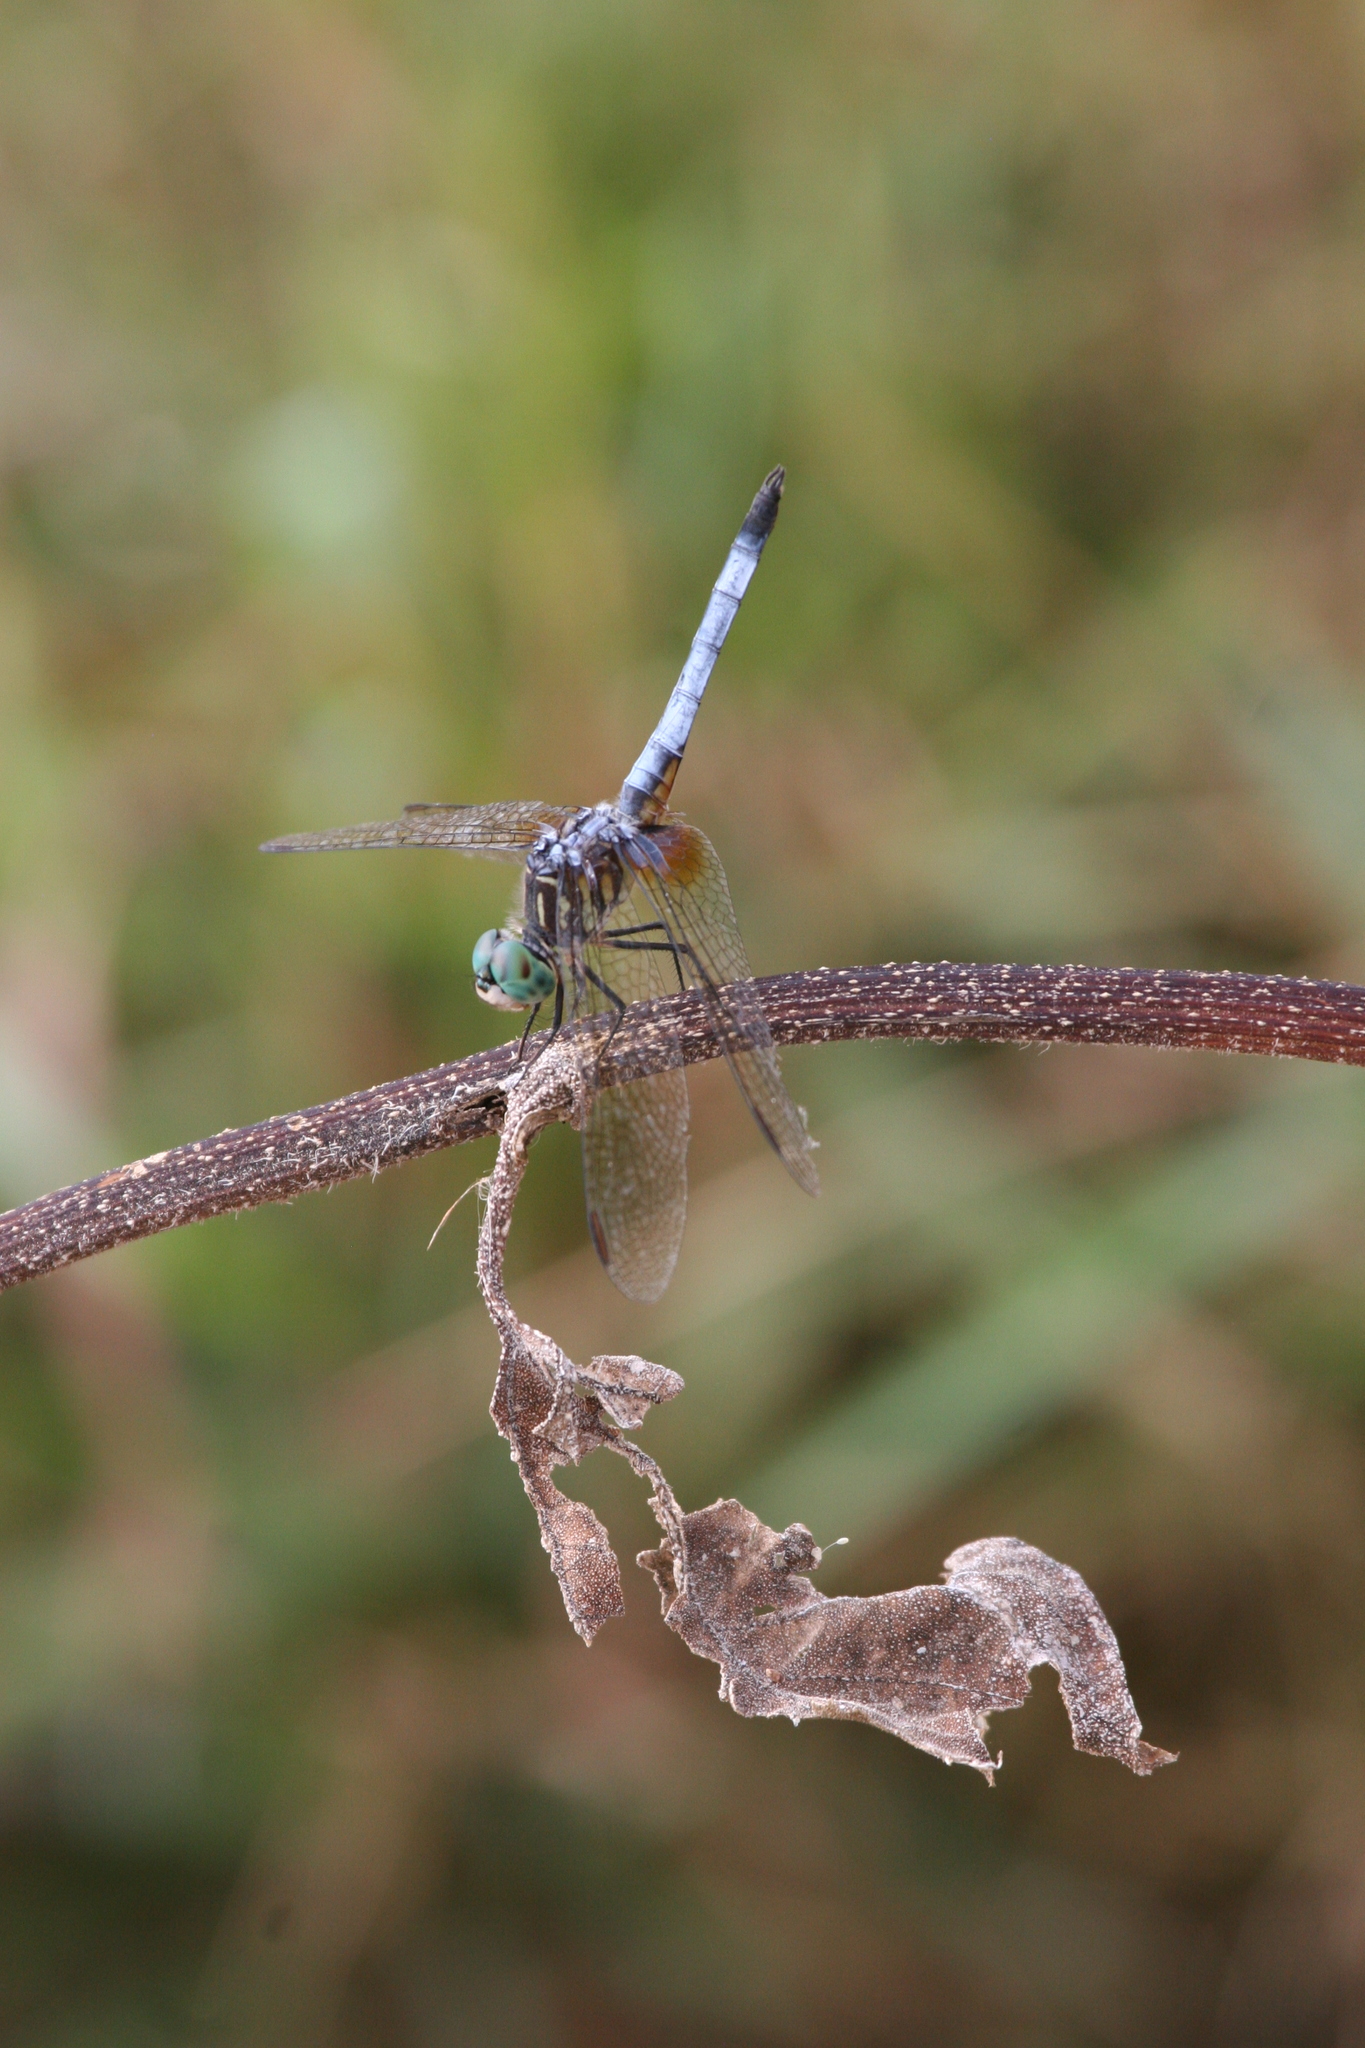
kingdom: Animalia
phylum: Arthropoda
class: Insecta
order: Odonata
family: Libellulidae
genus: Pachydiplax
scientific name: Pachydiplax longipennis
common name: Blue dasher
